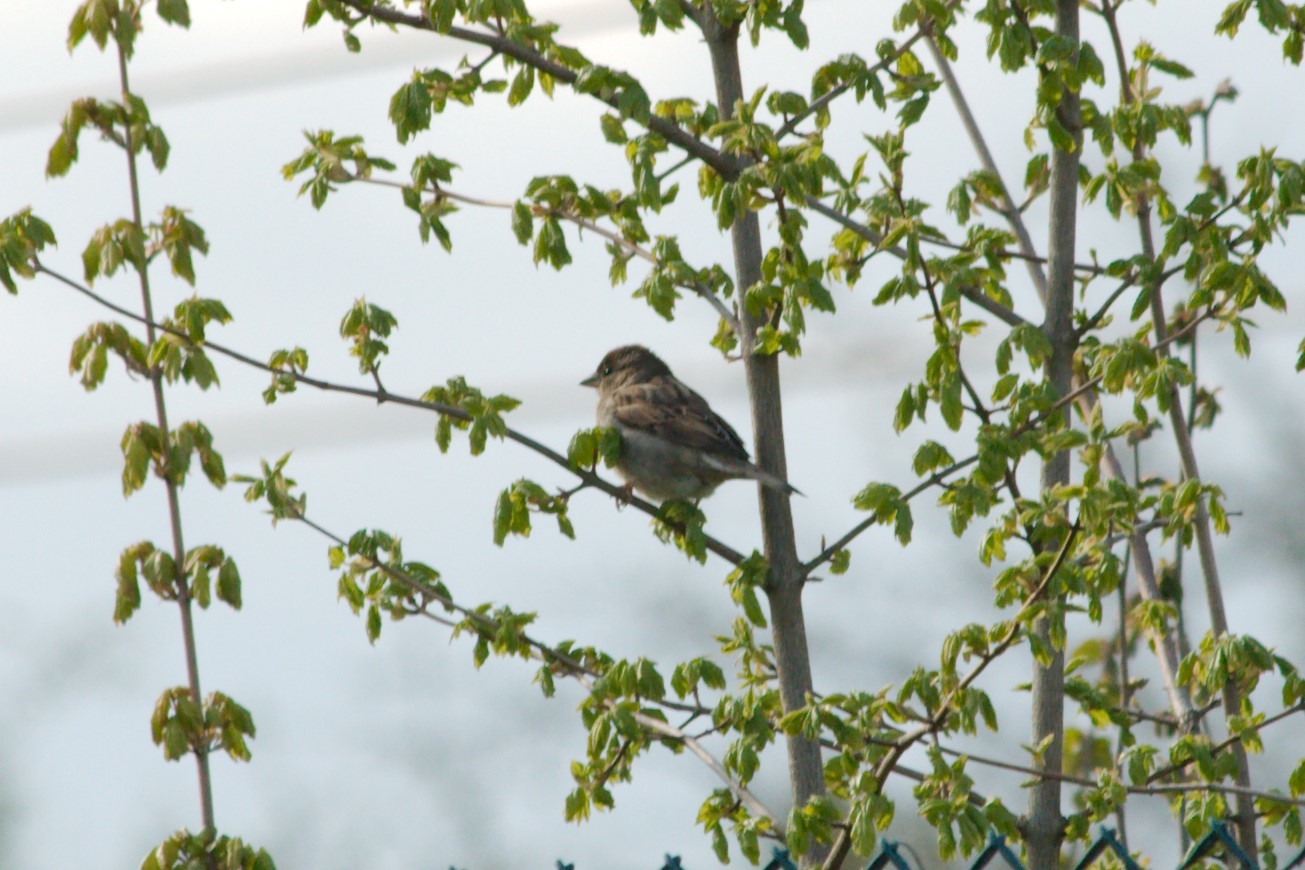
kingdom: Animalia
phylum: Chordata
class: Aves
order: Passeriformes
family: Passeridae
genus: Passer
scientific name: Passer domesticus
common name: House sparrow
